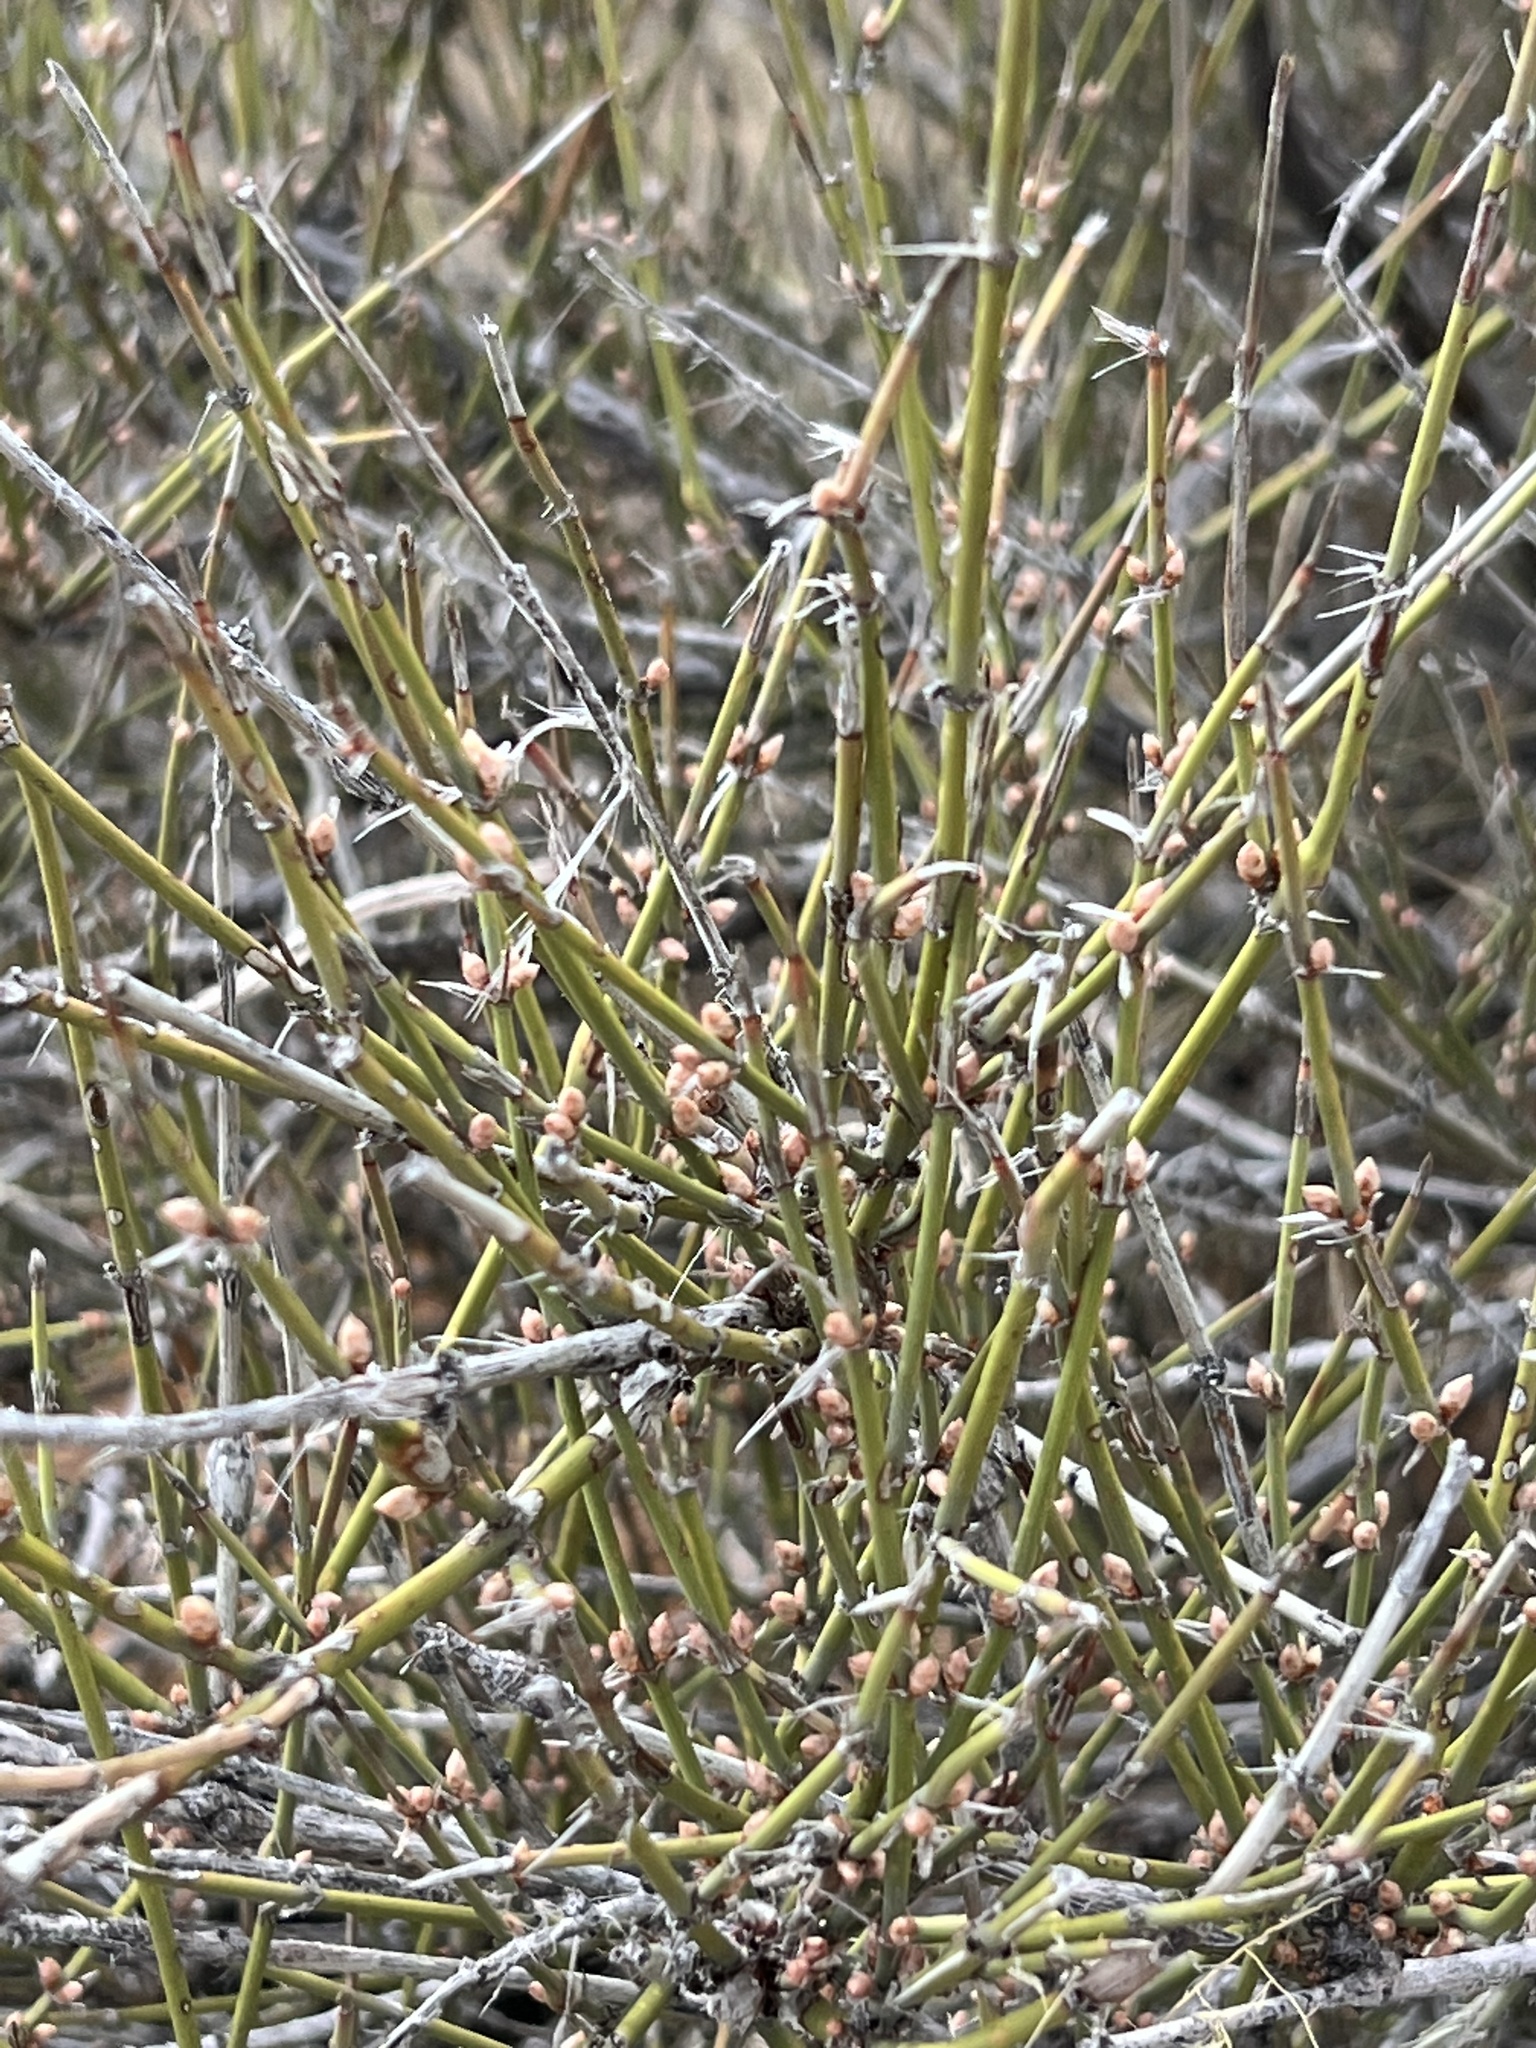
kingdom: Plantae
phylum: Tracheophyta
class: Gnetopsida
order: Ephedrales
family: Ephedraceae
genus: Ephedra
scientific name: Ephedra aspera
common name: Boundary ephedra
